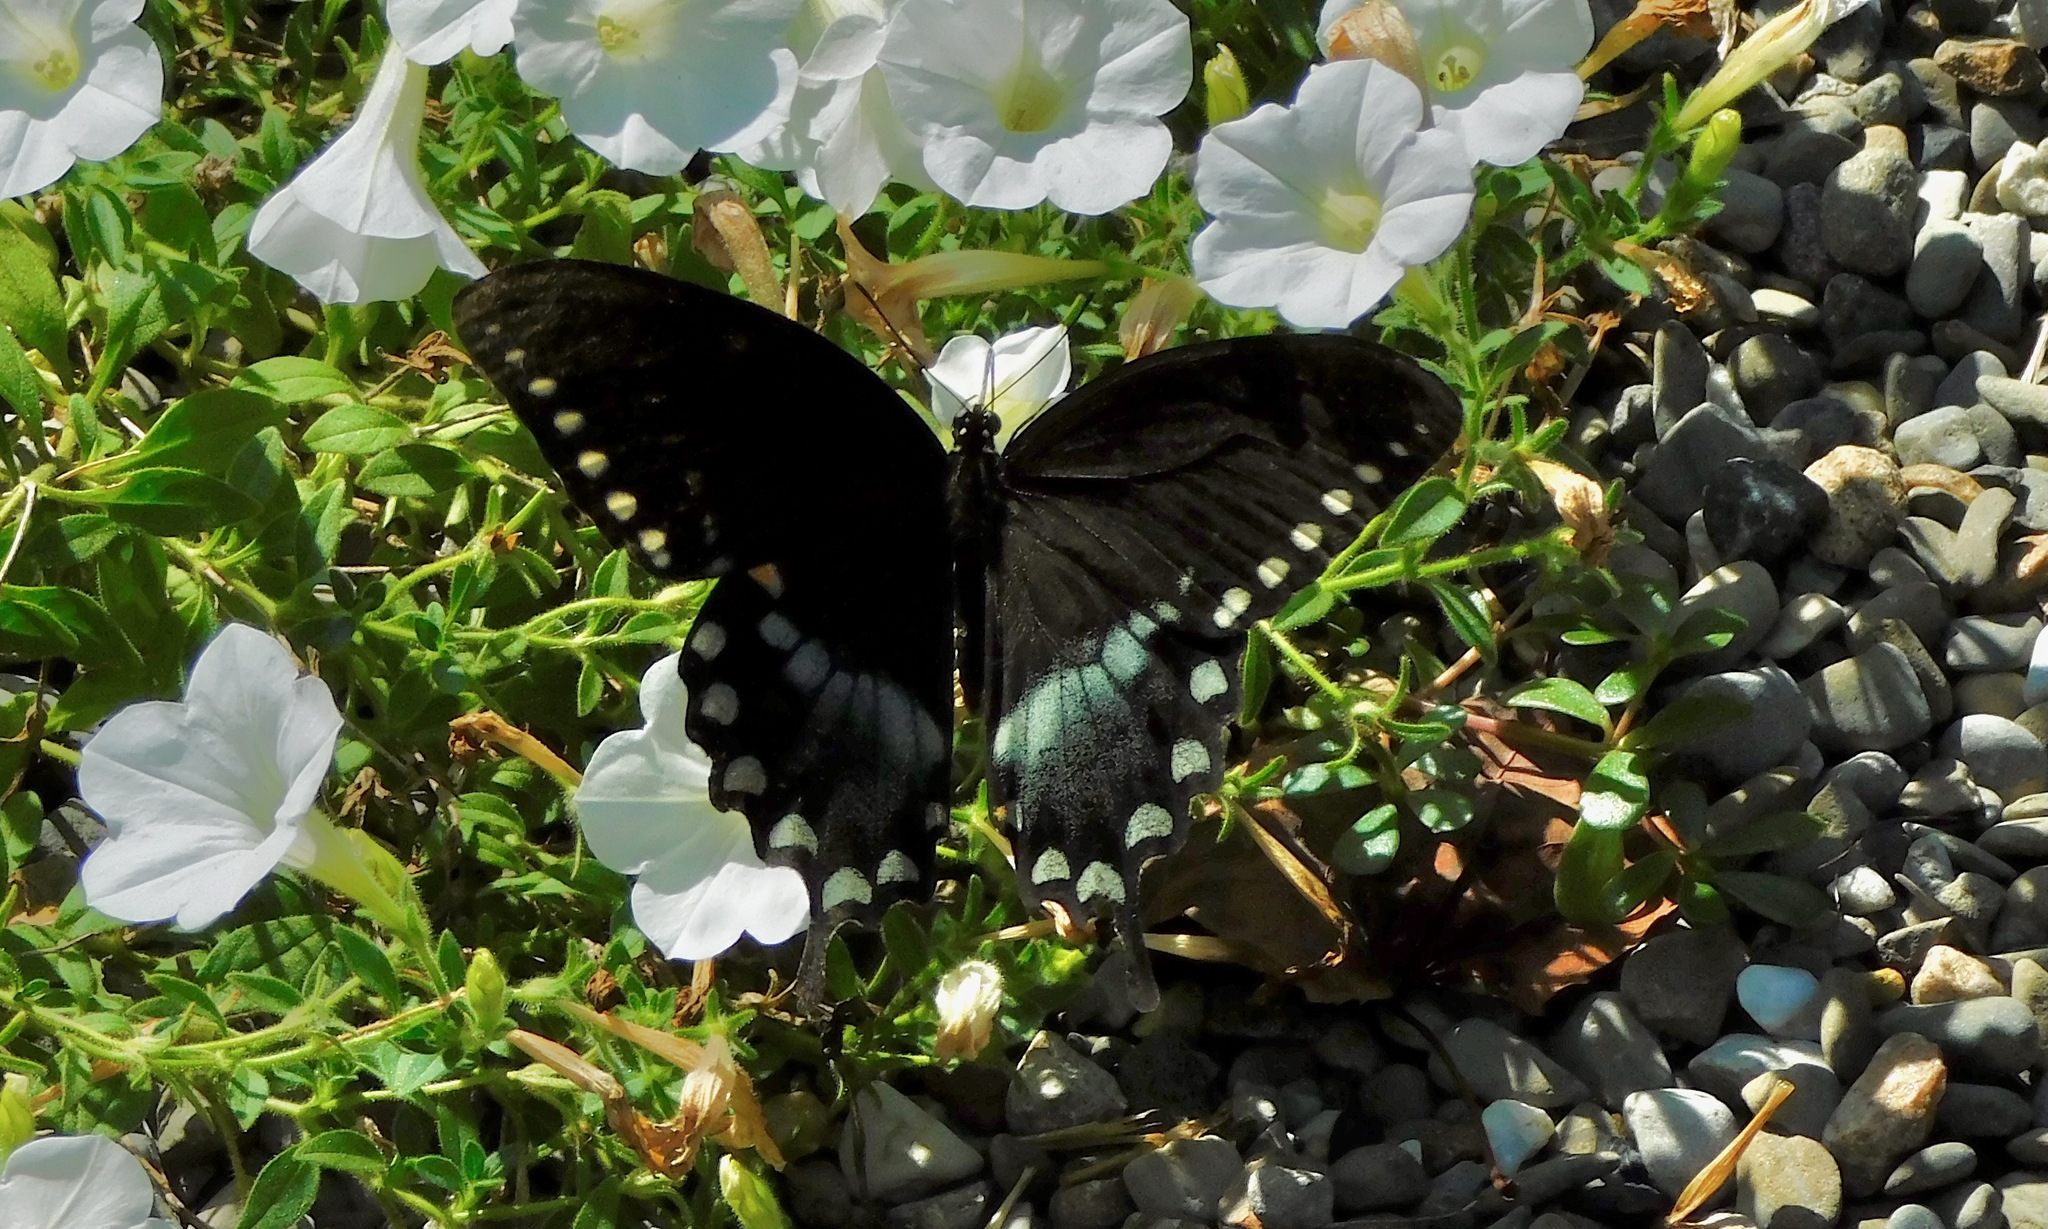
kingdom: Animalia
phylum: Arthropoda
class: Insecta
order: Lepidoptera
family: Papilionidae
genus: Papilio
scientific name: Papilio troilus
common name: Spicebush swallowtail
